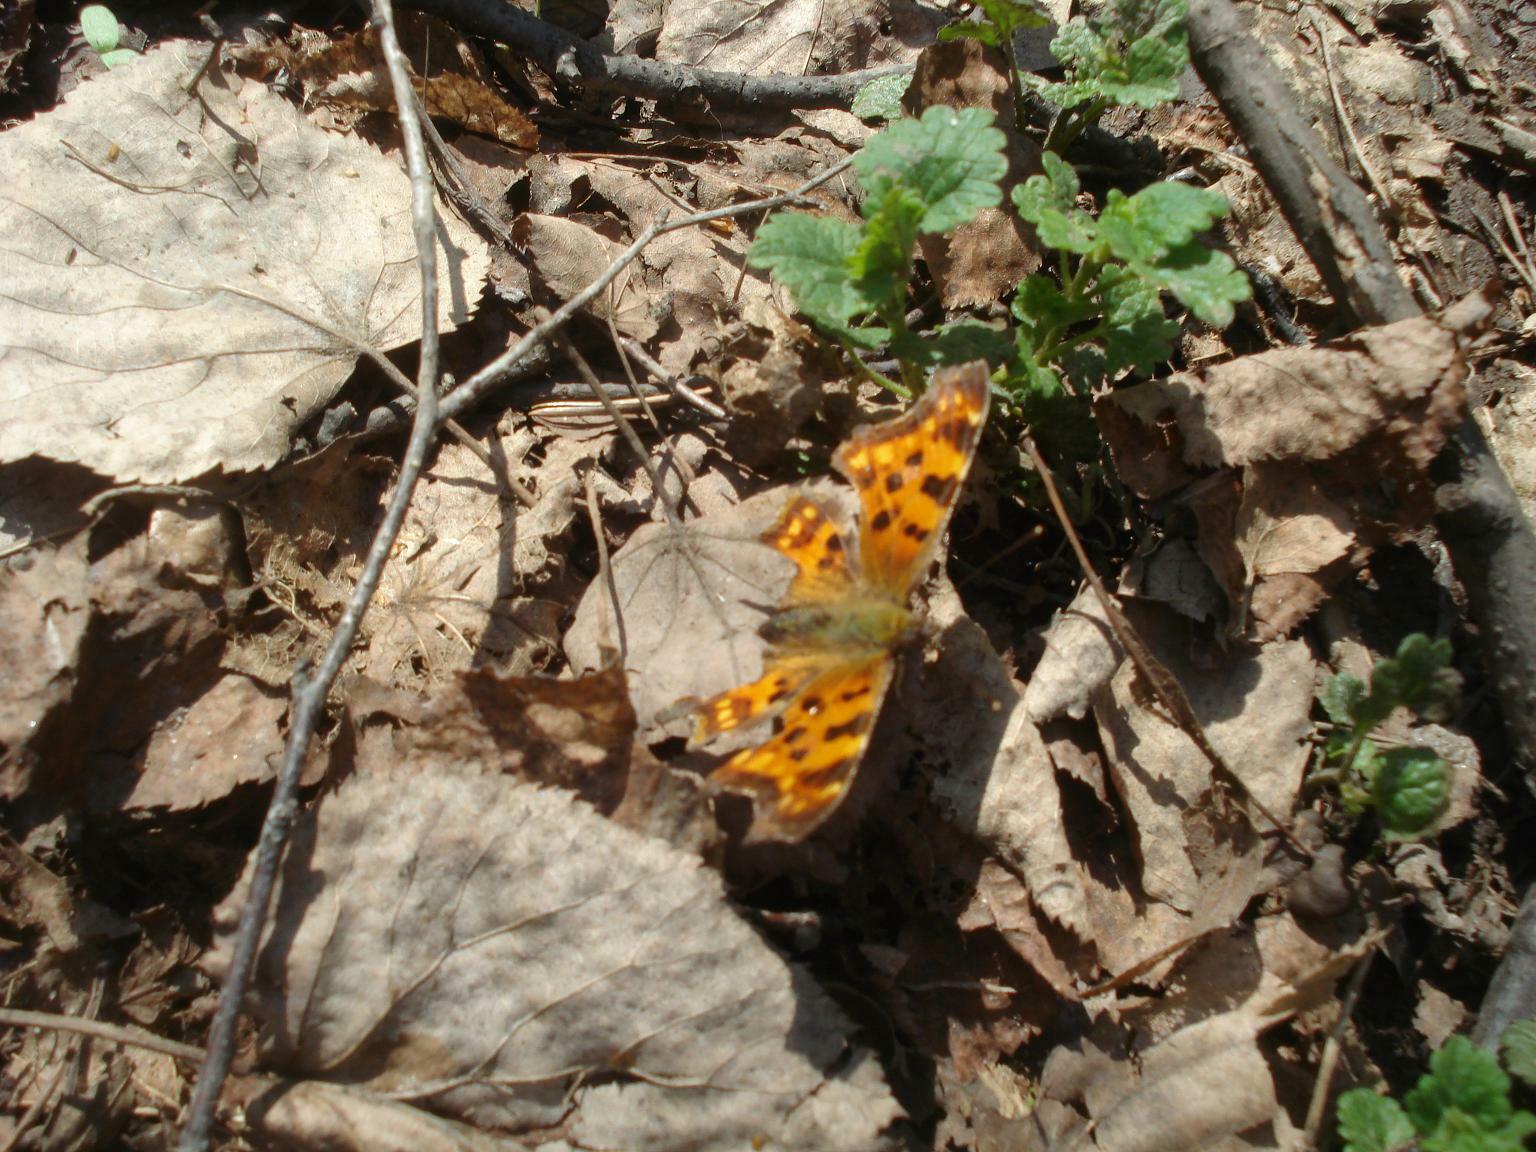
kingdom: Animalia
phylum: Arthropoda
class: Insecta
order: Lepidoptera
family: Nymphalidae
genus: Polygonia
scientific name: Polygonia c-album
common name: Comma
